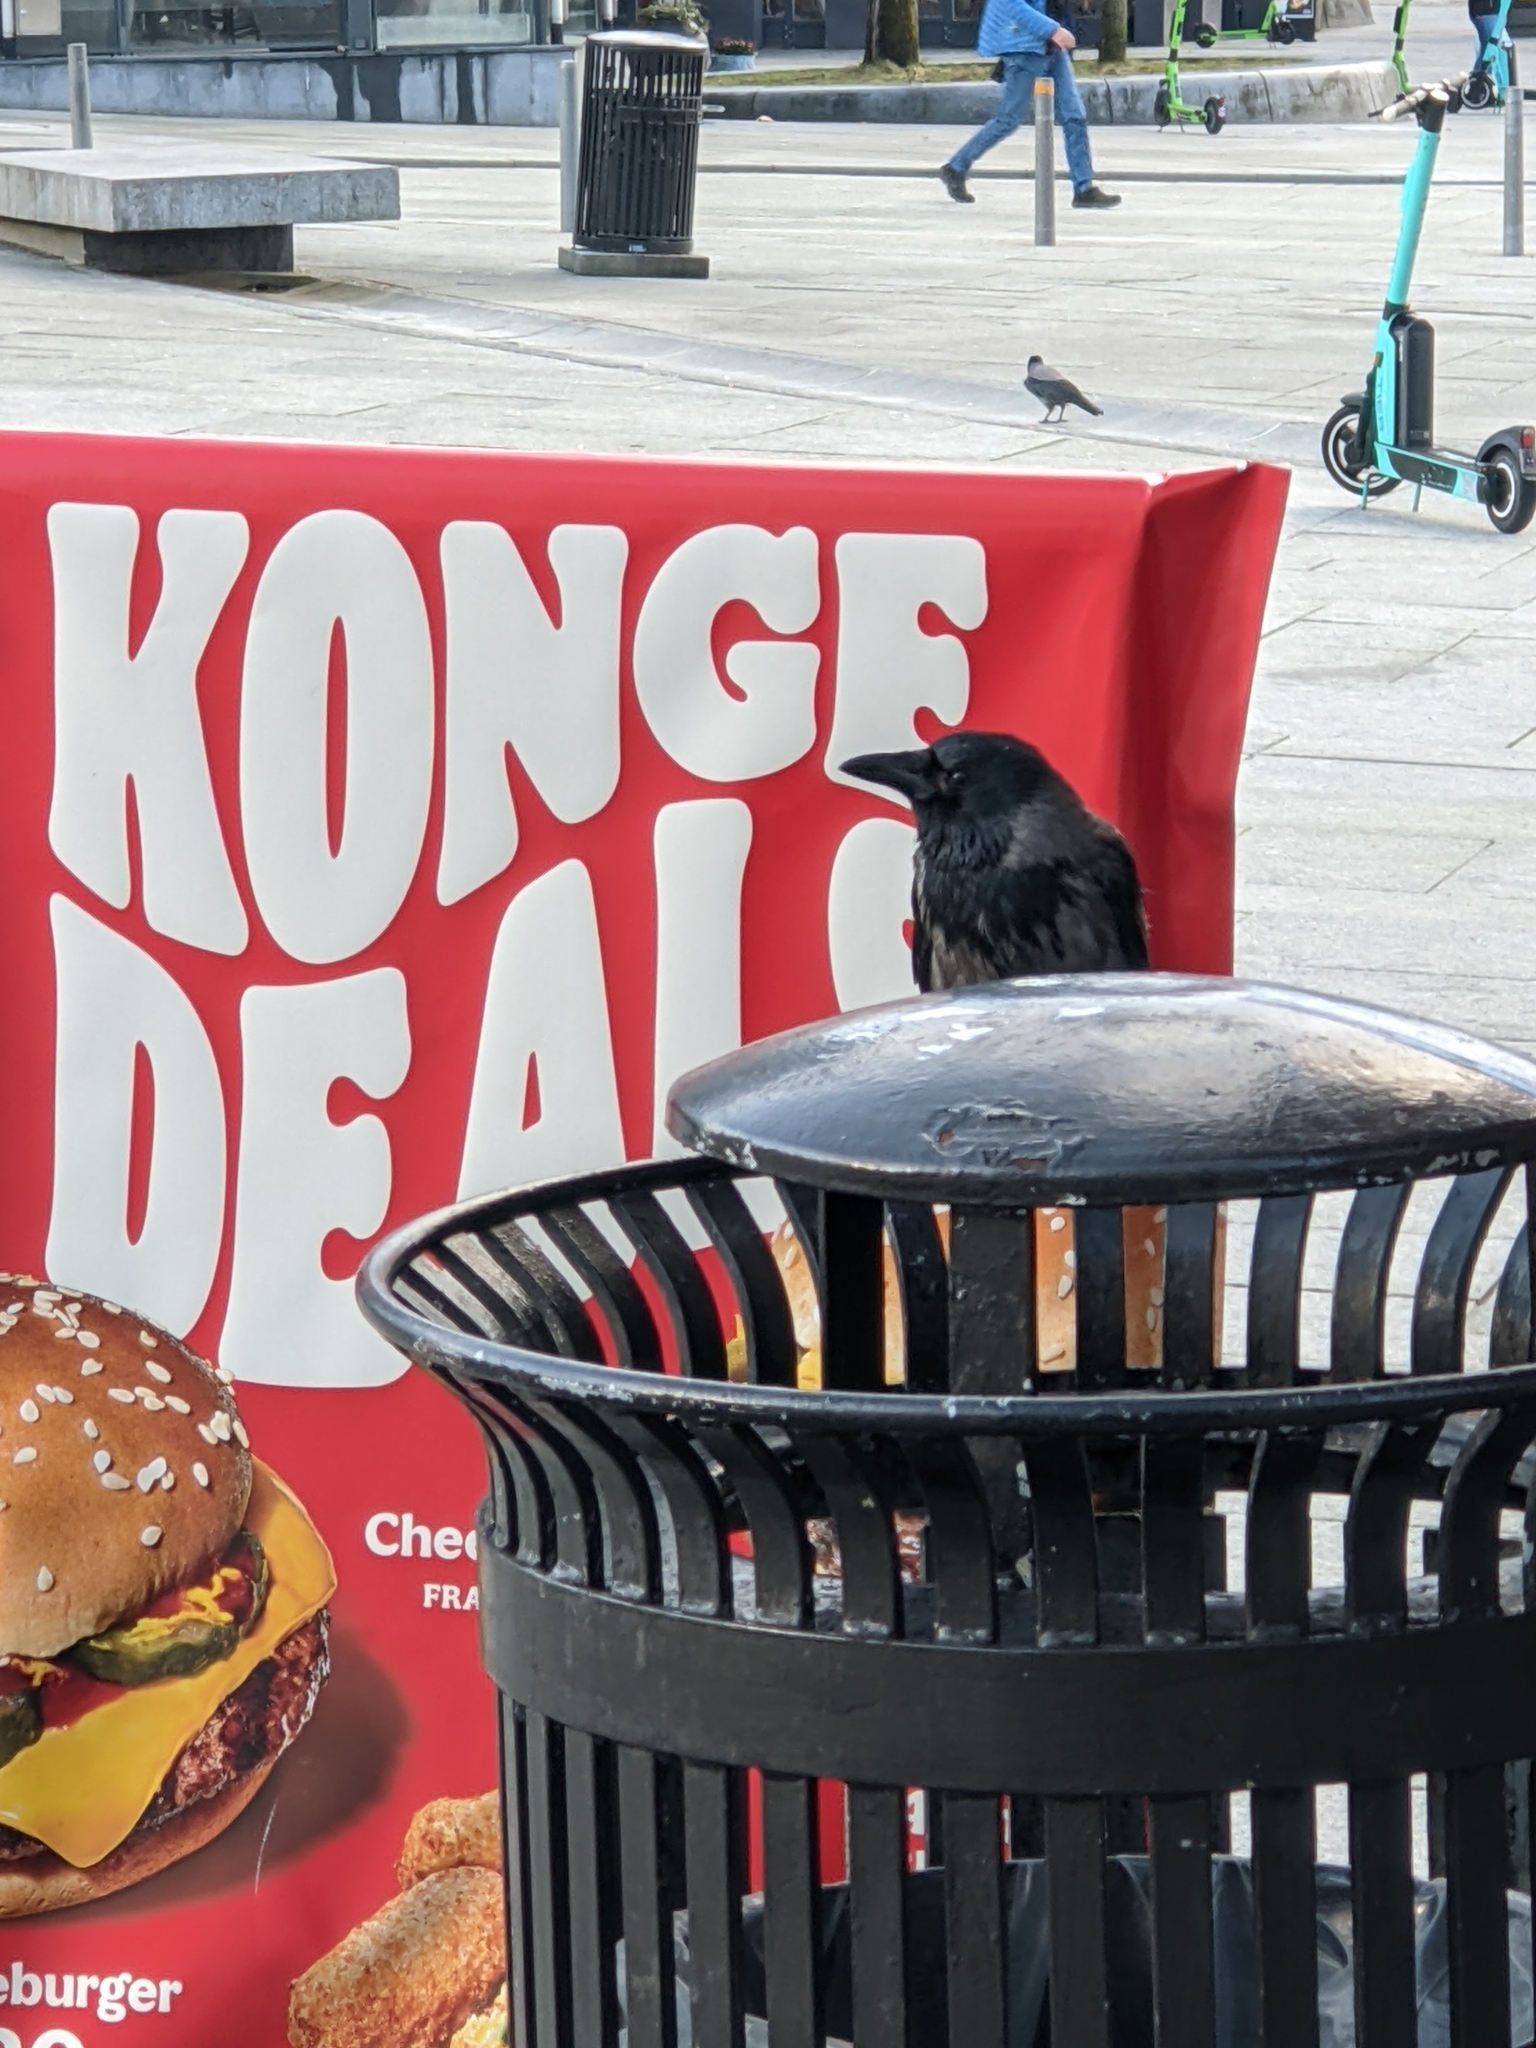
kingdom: Animalia
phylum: Chordata
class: Aves
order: Passeriformes
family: Corvidae
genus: Corvus
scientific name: Corvus cornix
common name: Hooded crow
